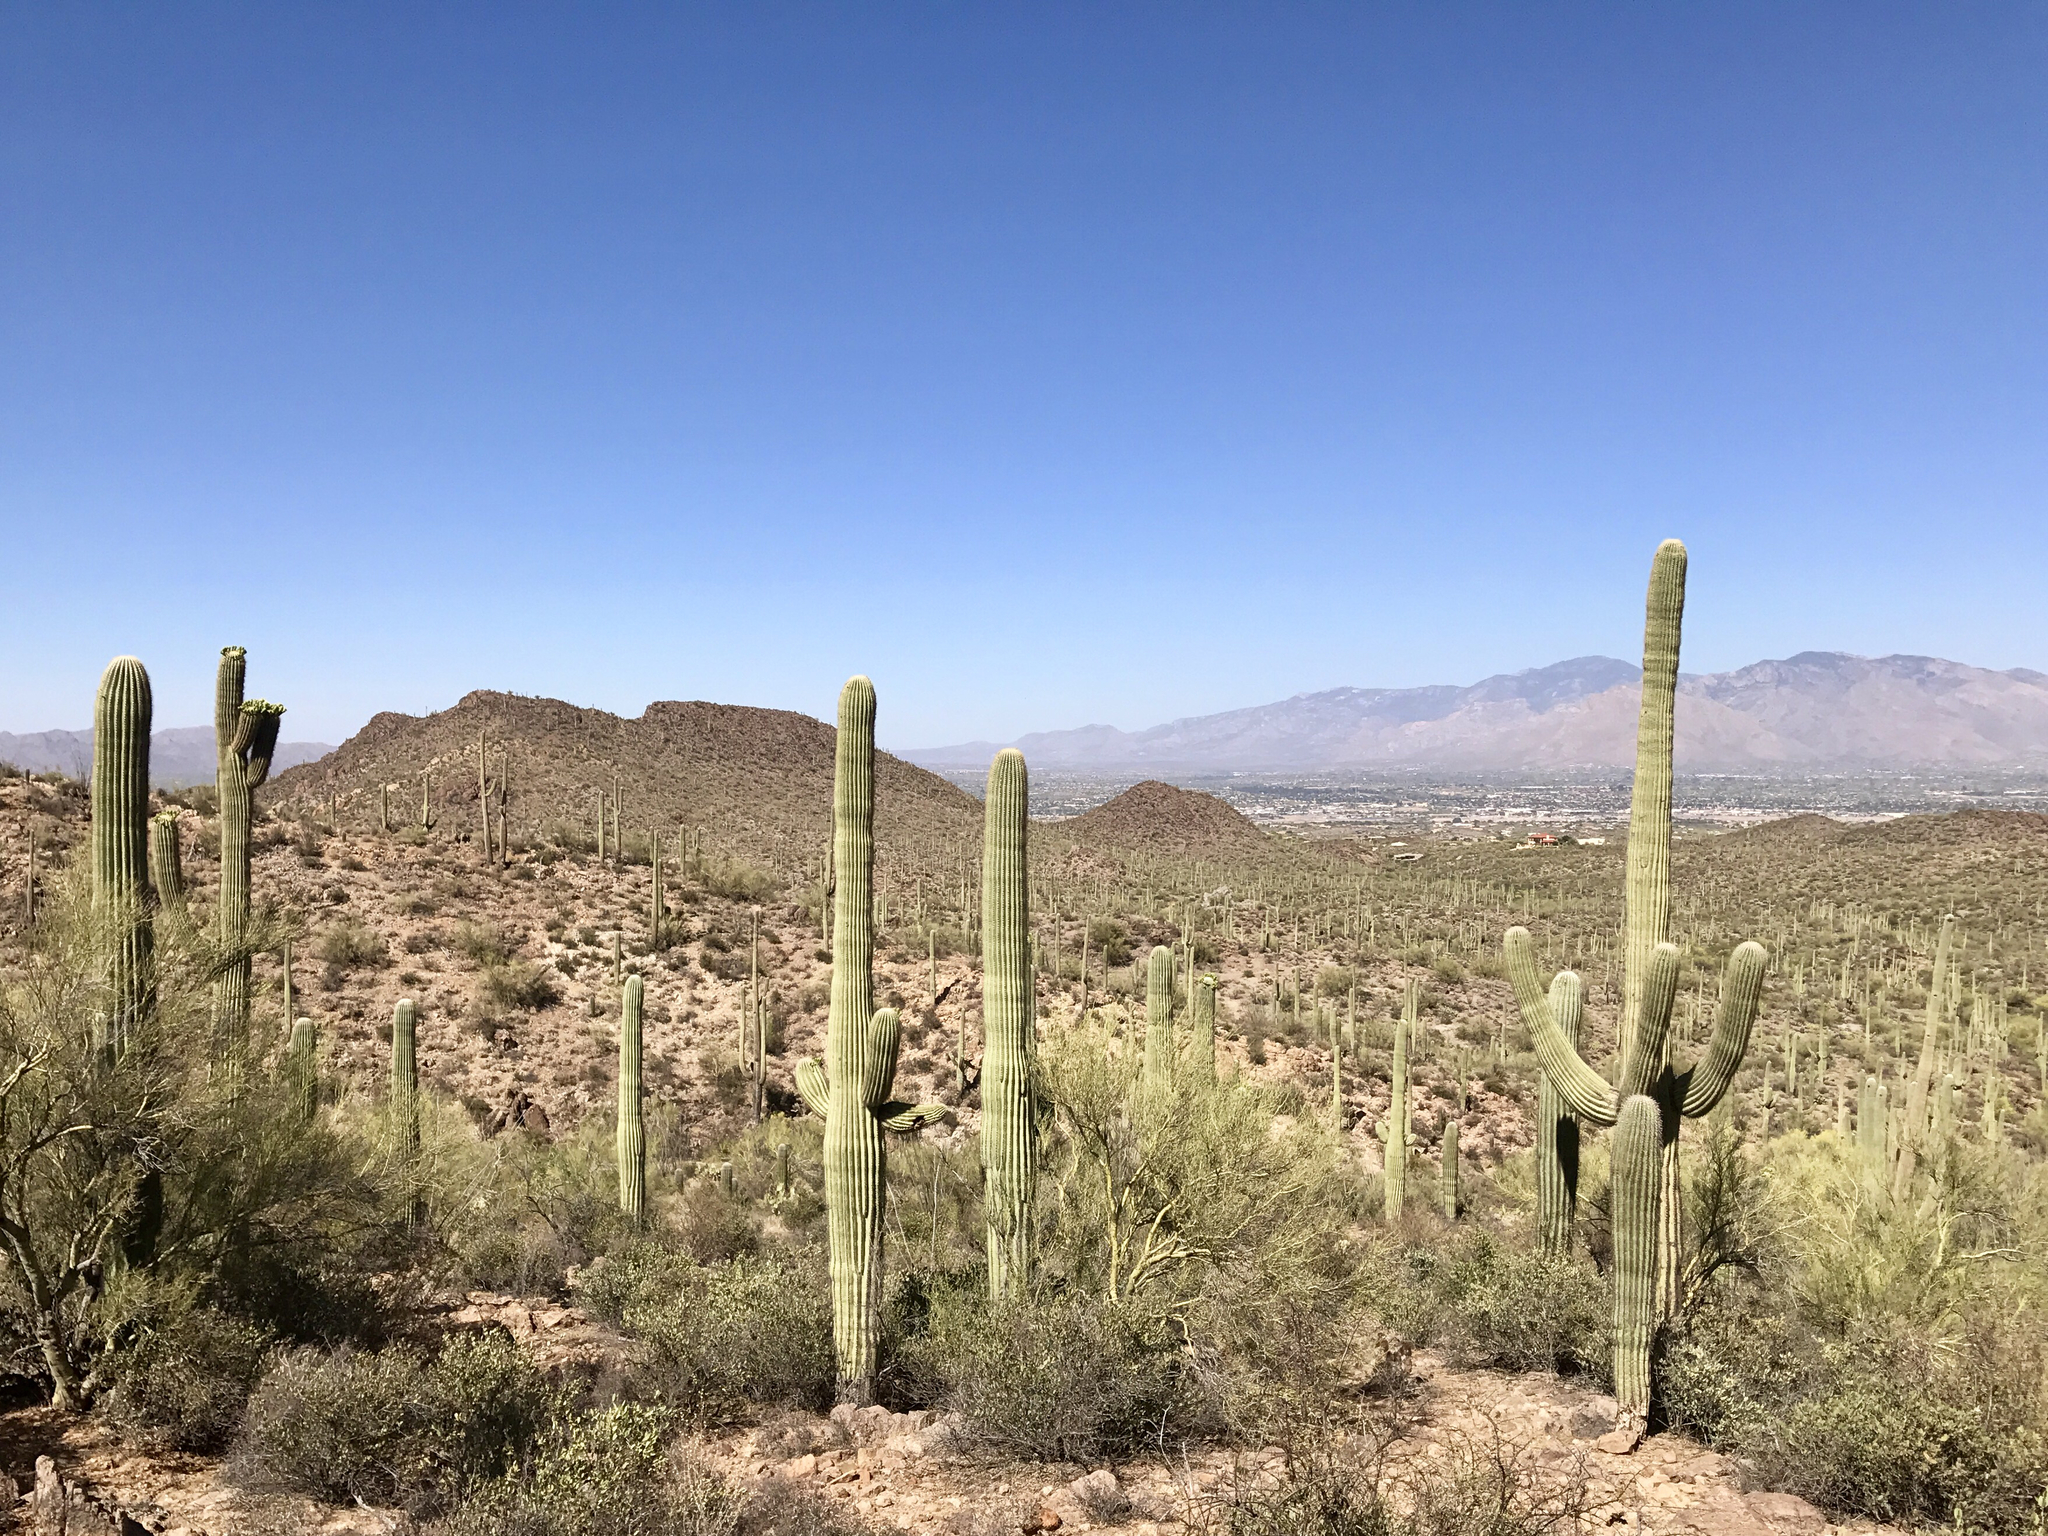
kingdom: Plantae
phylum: Tracheophyta
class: Magnoliopsida
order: Caryophyllales
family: Cactaceae
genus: Carnegiea
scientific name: Carnegiea gigantea
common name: Saguaro
